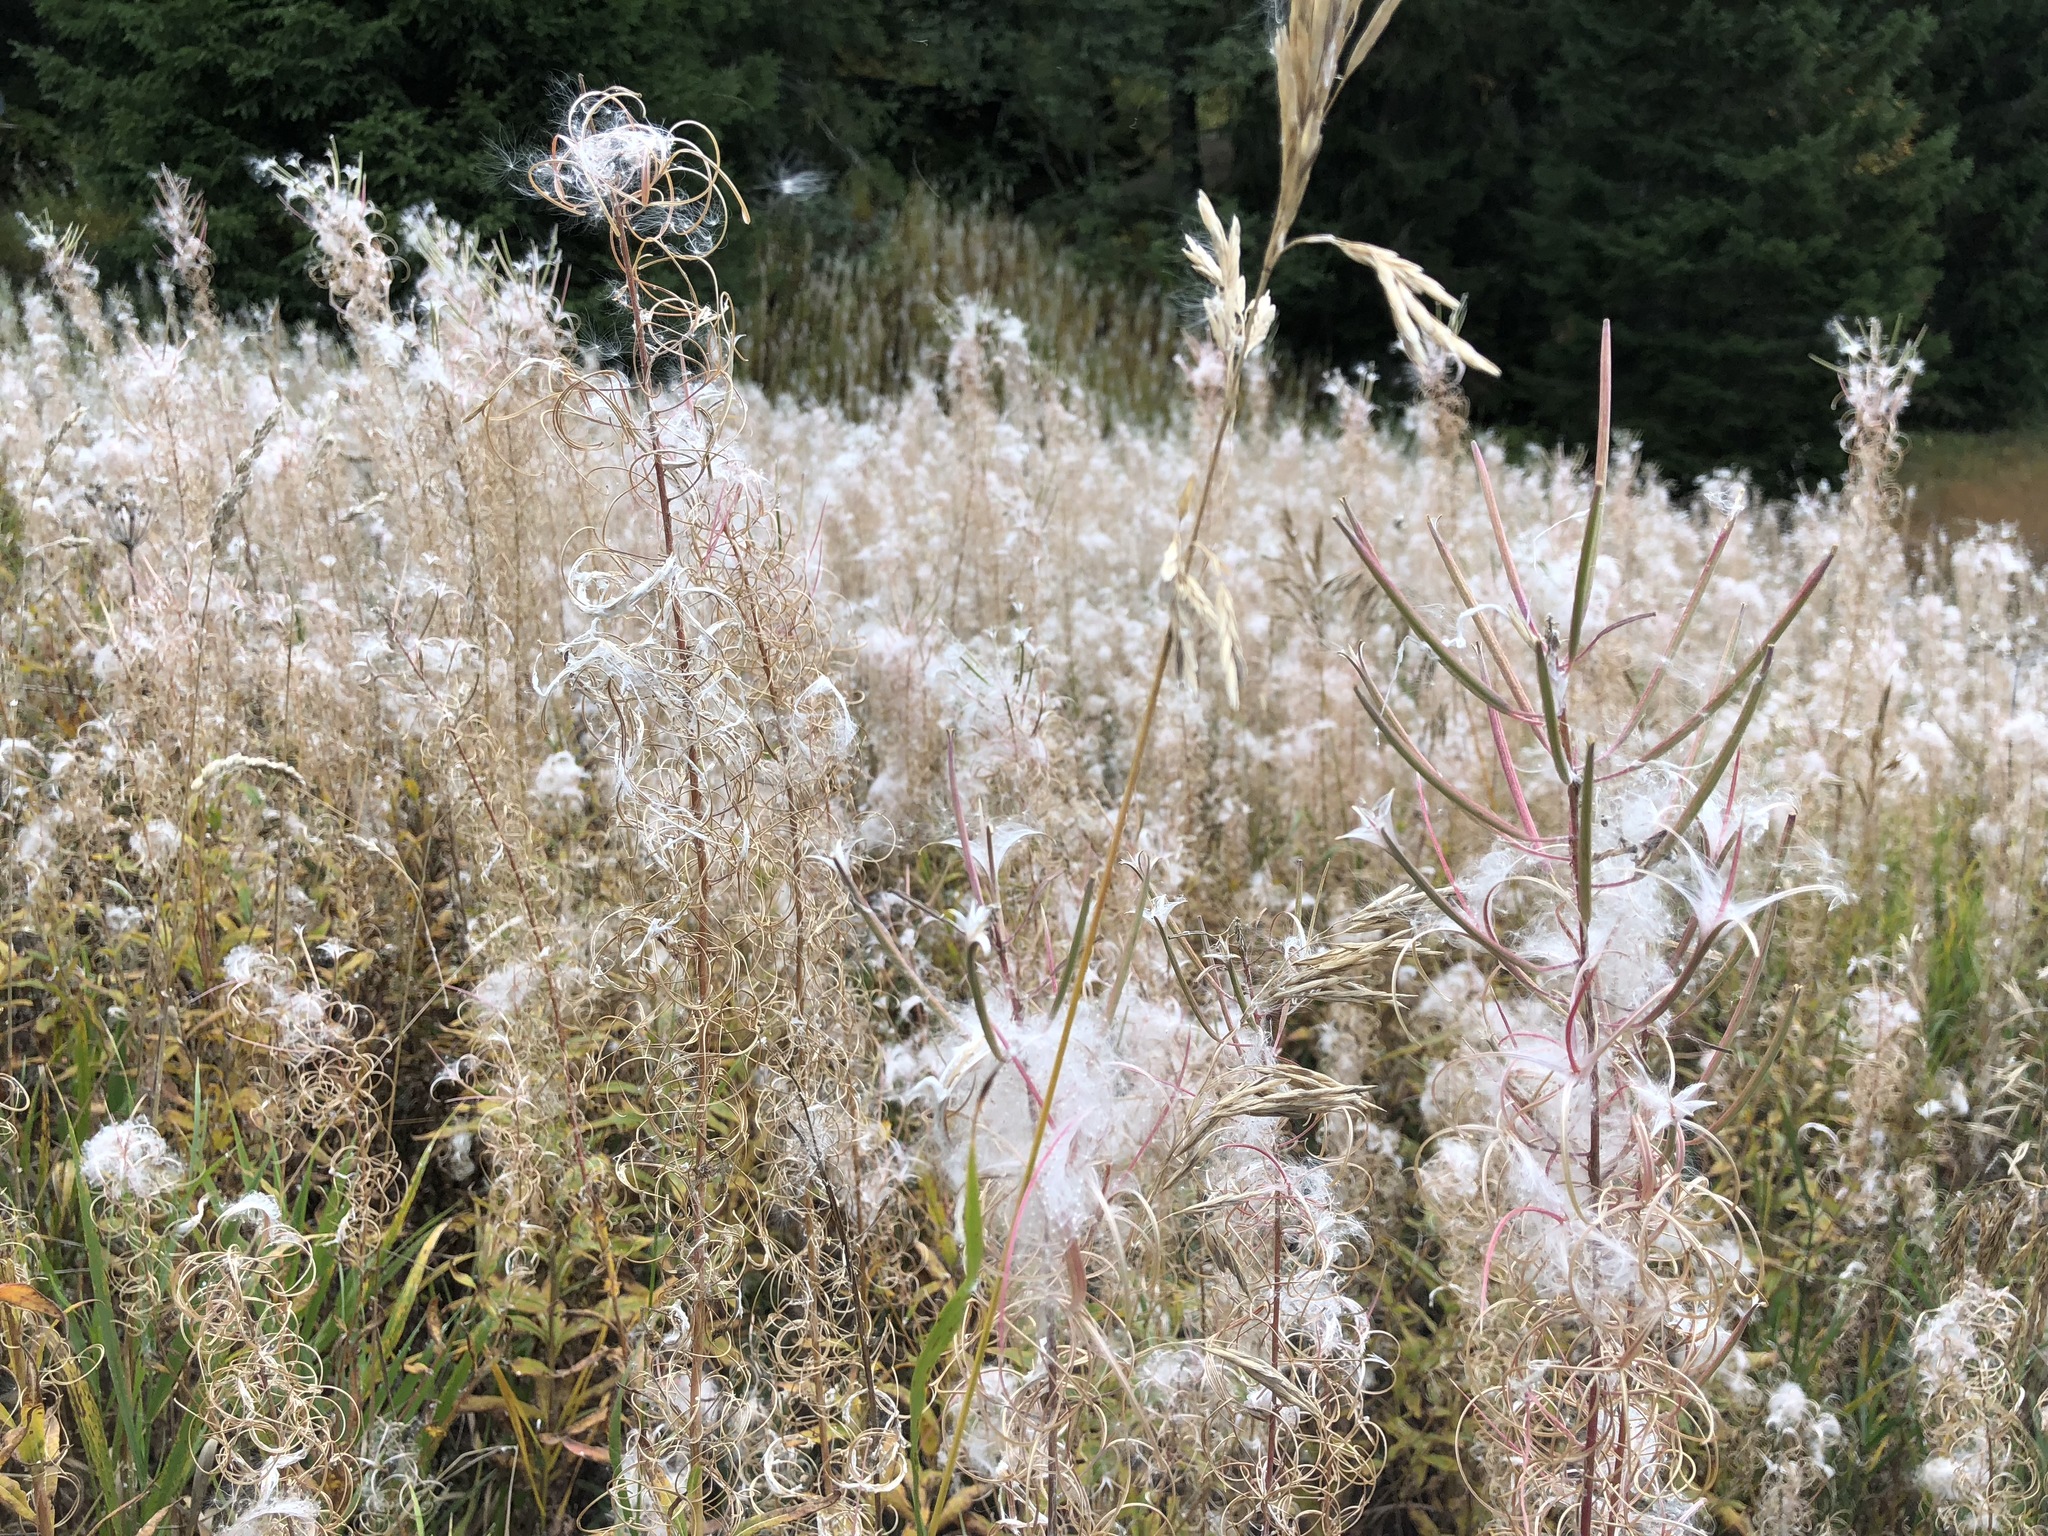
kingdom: Plantae
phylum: Tracheophyta
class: Magnoliopsida
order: Myrtales
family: Onagraceae
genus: Chamaenerion
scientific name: Chamaenerion angustifolium
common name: Fireweed
